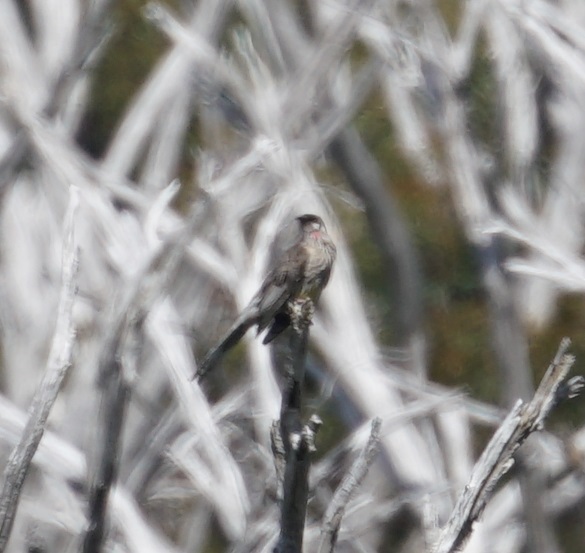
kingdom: Animalia
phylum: Chordata
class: Aves
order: Passeriformes
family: Meliphagidae
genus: Anthochaera
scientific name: Anthochaera carunculata
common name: Red wattlebird
